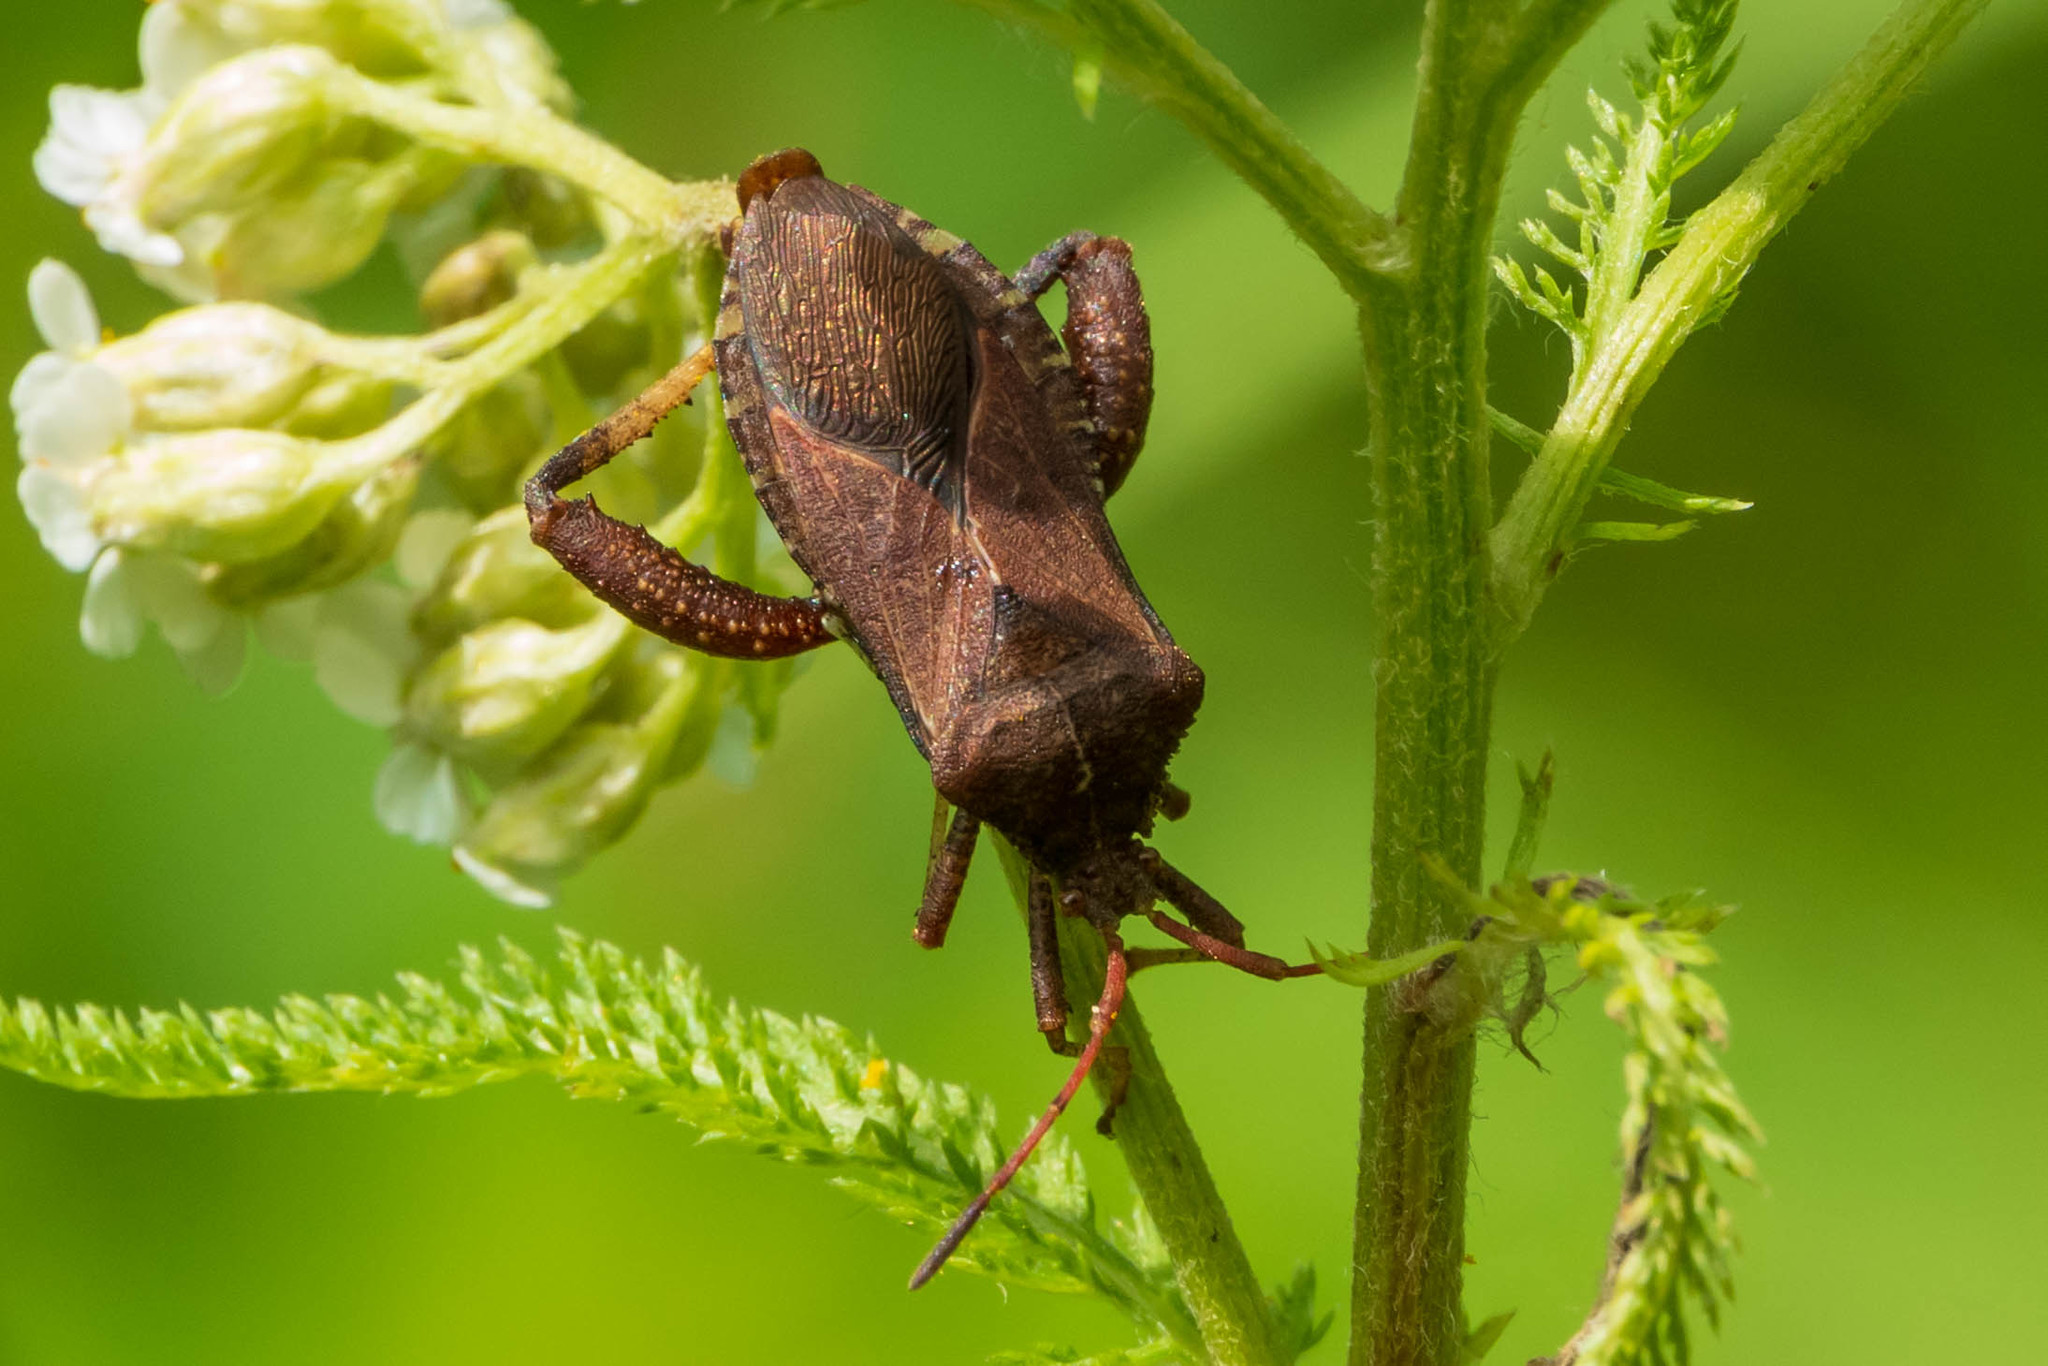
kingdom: Animalia
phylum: Arthropoda
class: Insecta
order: Hemiptera
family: Coreidae
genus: Euthochtha
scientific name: Euthochtha galeator
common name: Helmeted squash bug
